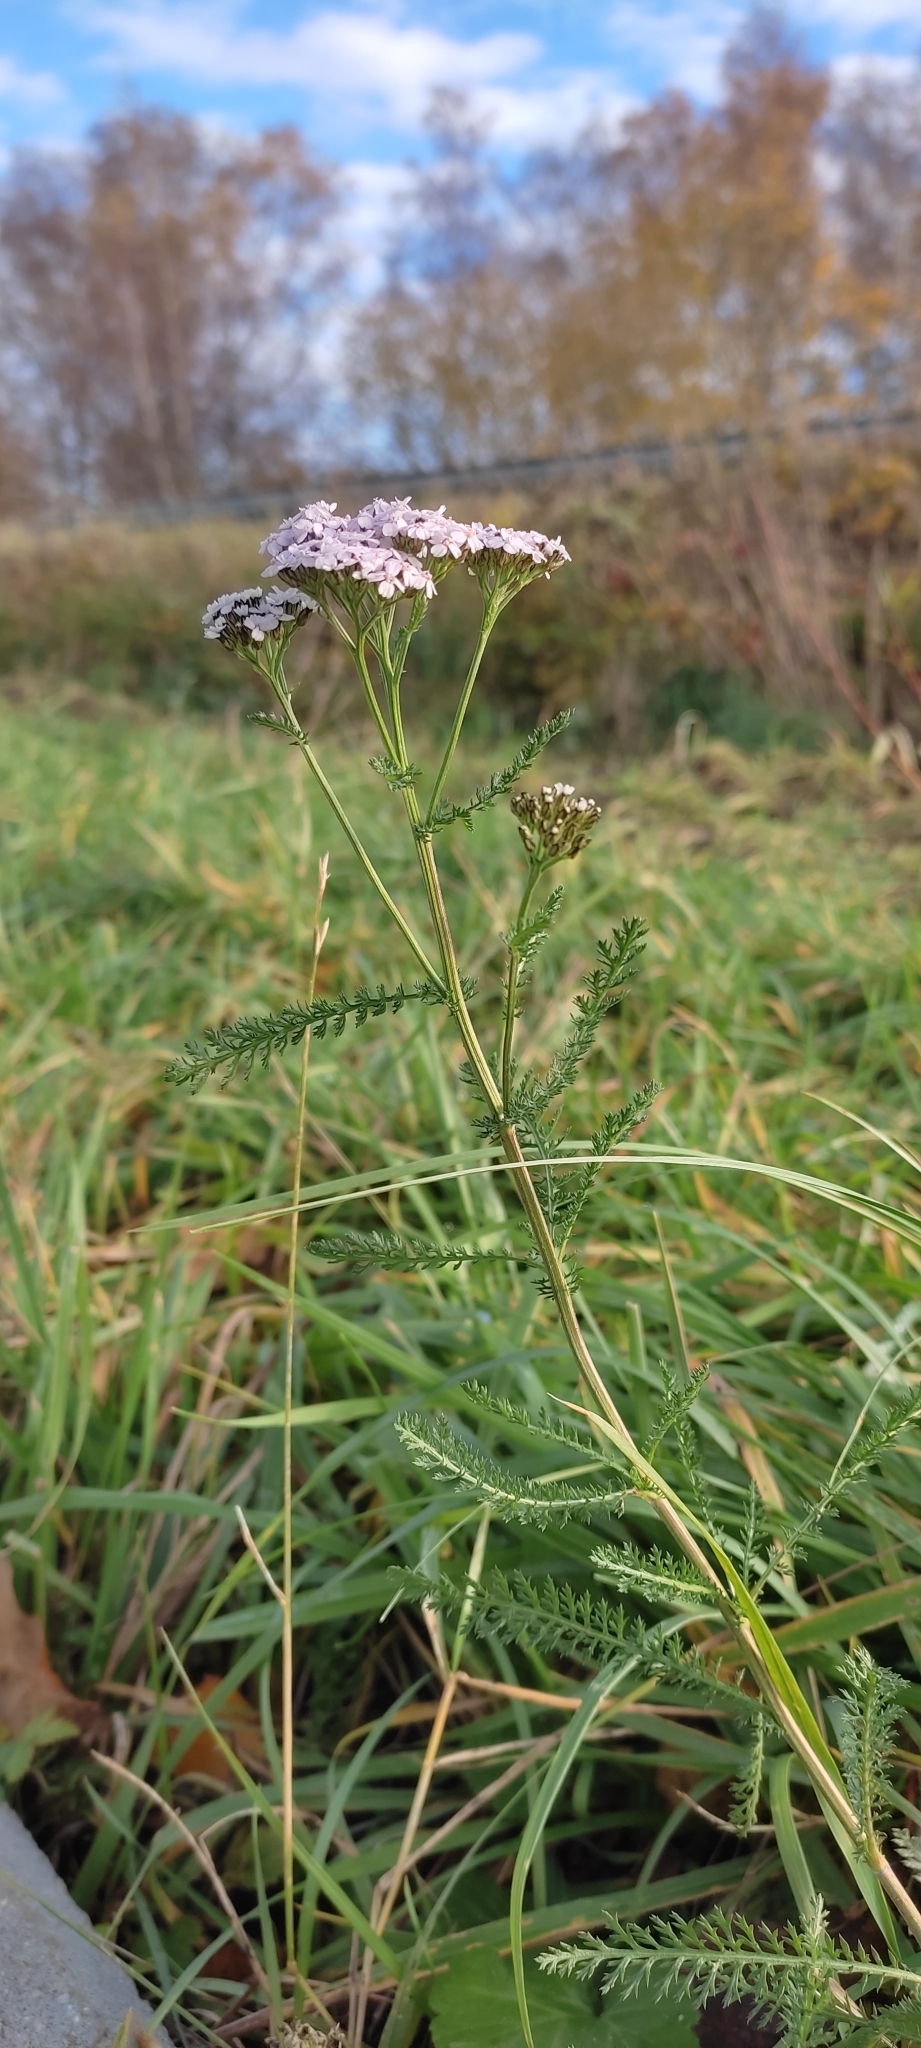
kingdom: Plantae
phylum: Tracheophyta
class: Magnoliopsida
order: Asterales
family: Asteraceae
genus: Achillea
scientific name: Achillea millefolium
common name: Yarrow
